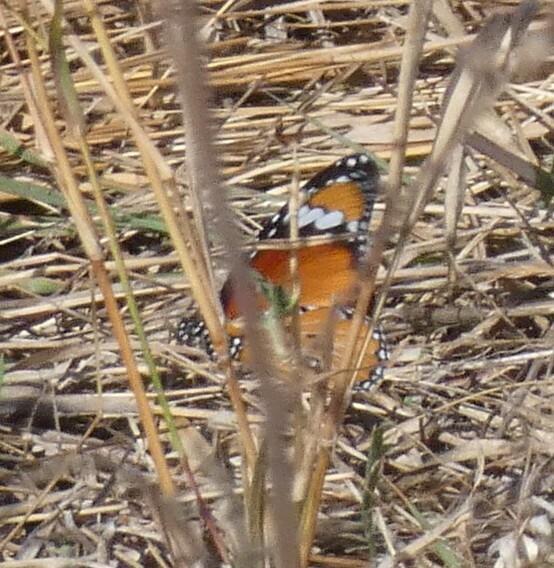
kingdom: Animalia
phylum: Arthropoda
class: Insecta
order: Lepidoptera
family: Nymphalidae
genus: Danaus
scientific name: Danaus chrysippus
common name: Plain tiger
